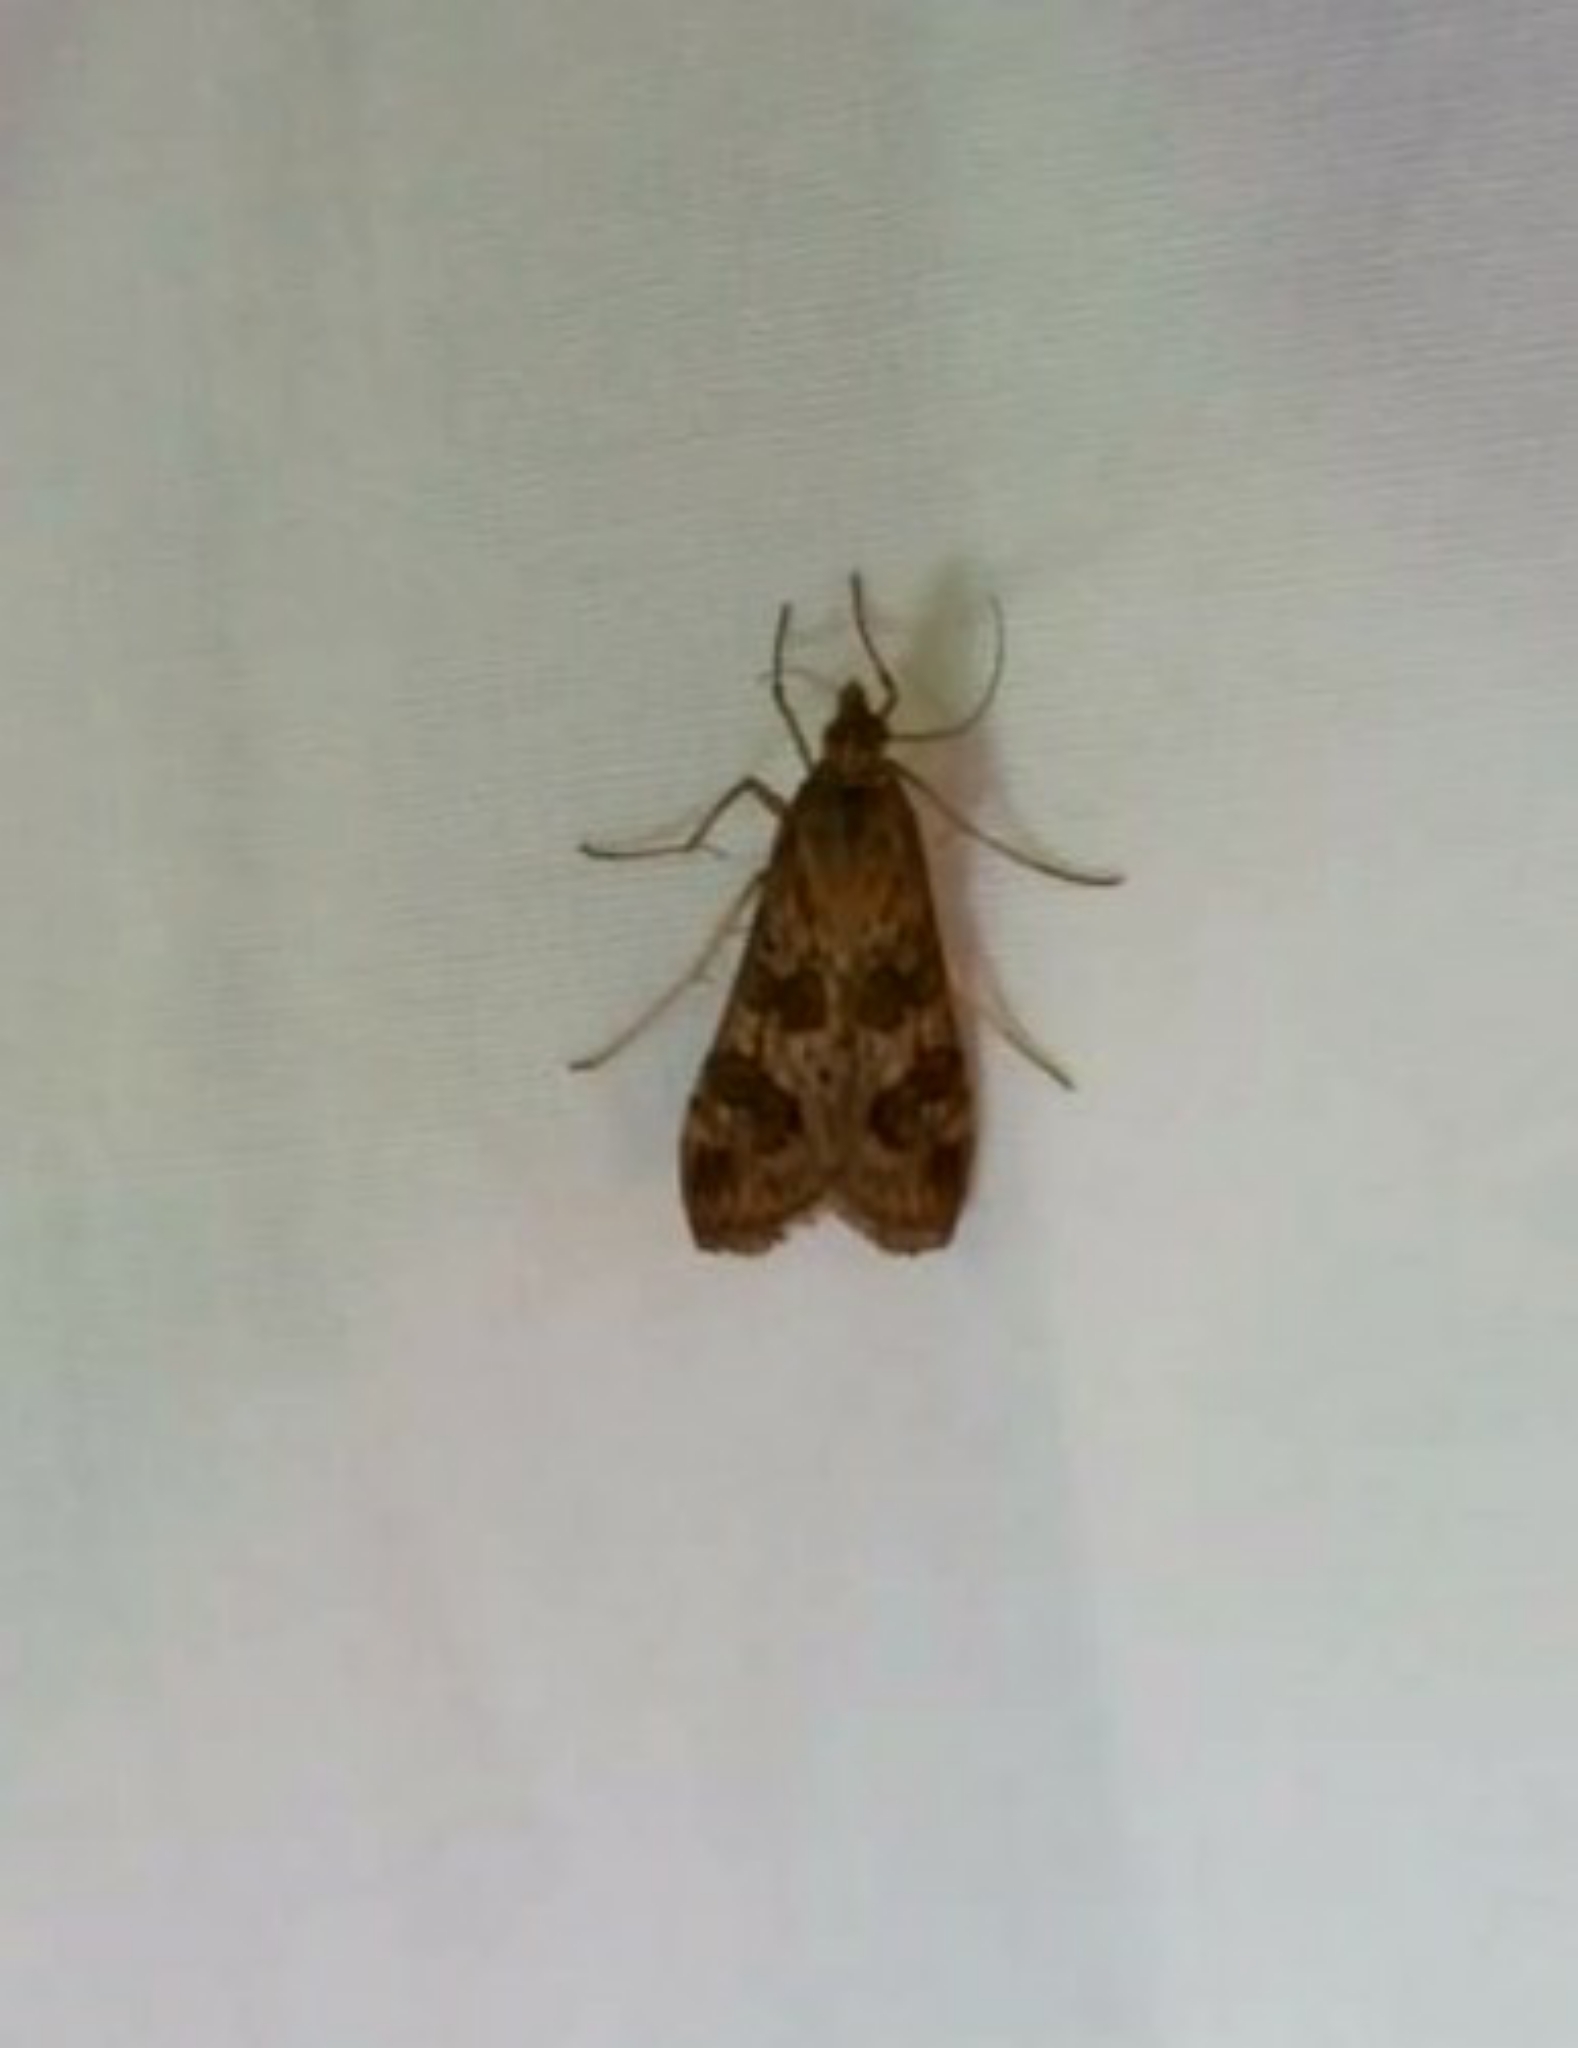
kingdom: Animalia
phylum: Arthropoda
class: Insecta
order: Lepidoptera
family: Crambidae
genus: Nomophila
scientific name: Nomophila noctuella
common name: Rush veneer
